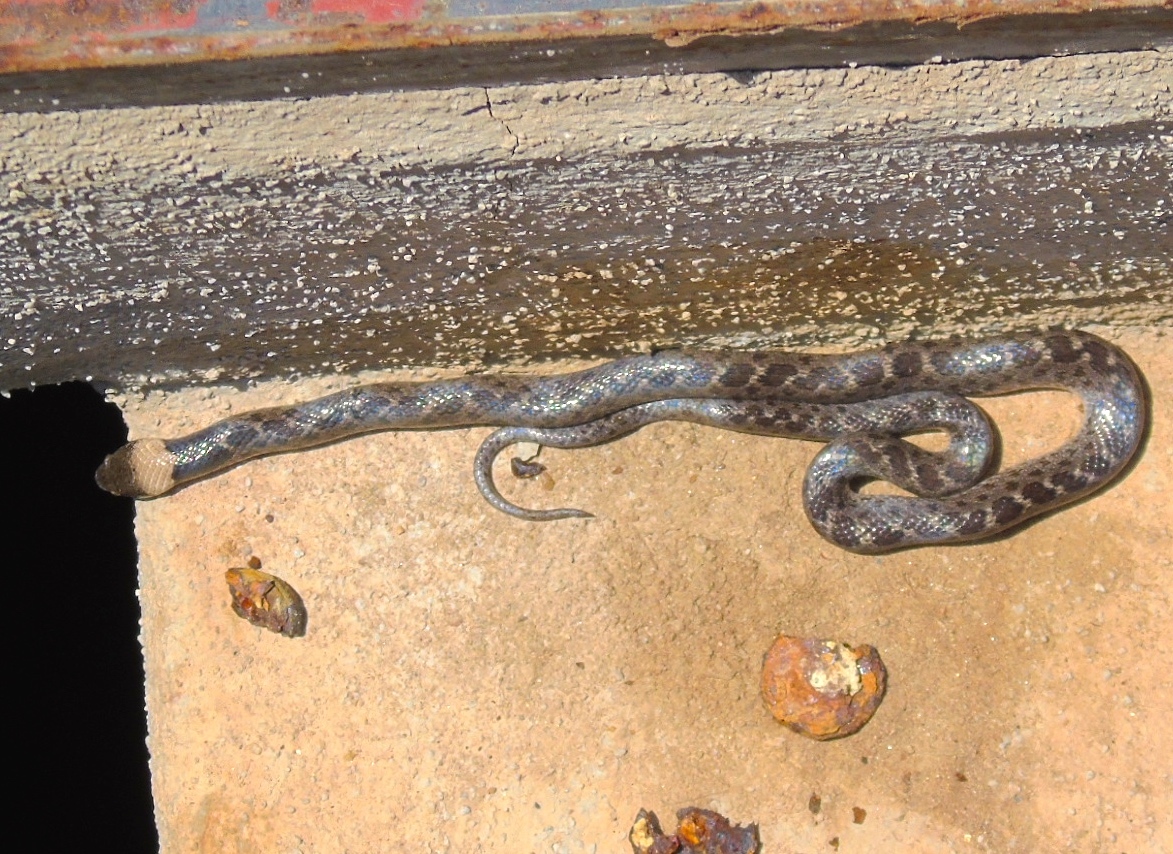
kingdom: Animalia
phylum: Chordata
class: Squamata
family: Colubridae
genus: Hypsiglena
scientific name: Hypsiglena torquata
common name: Night snake
